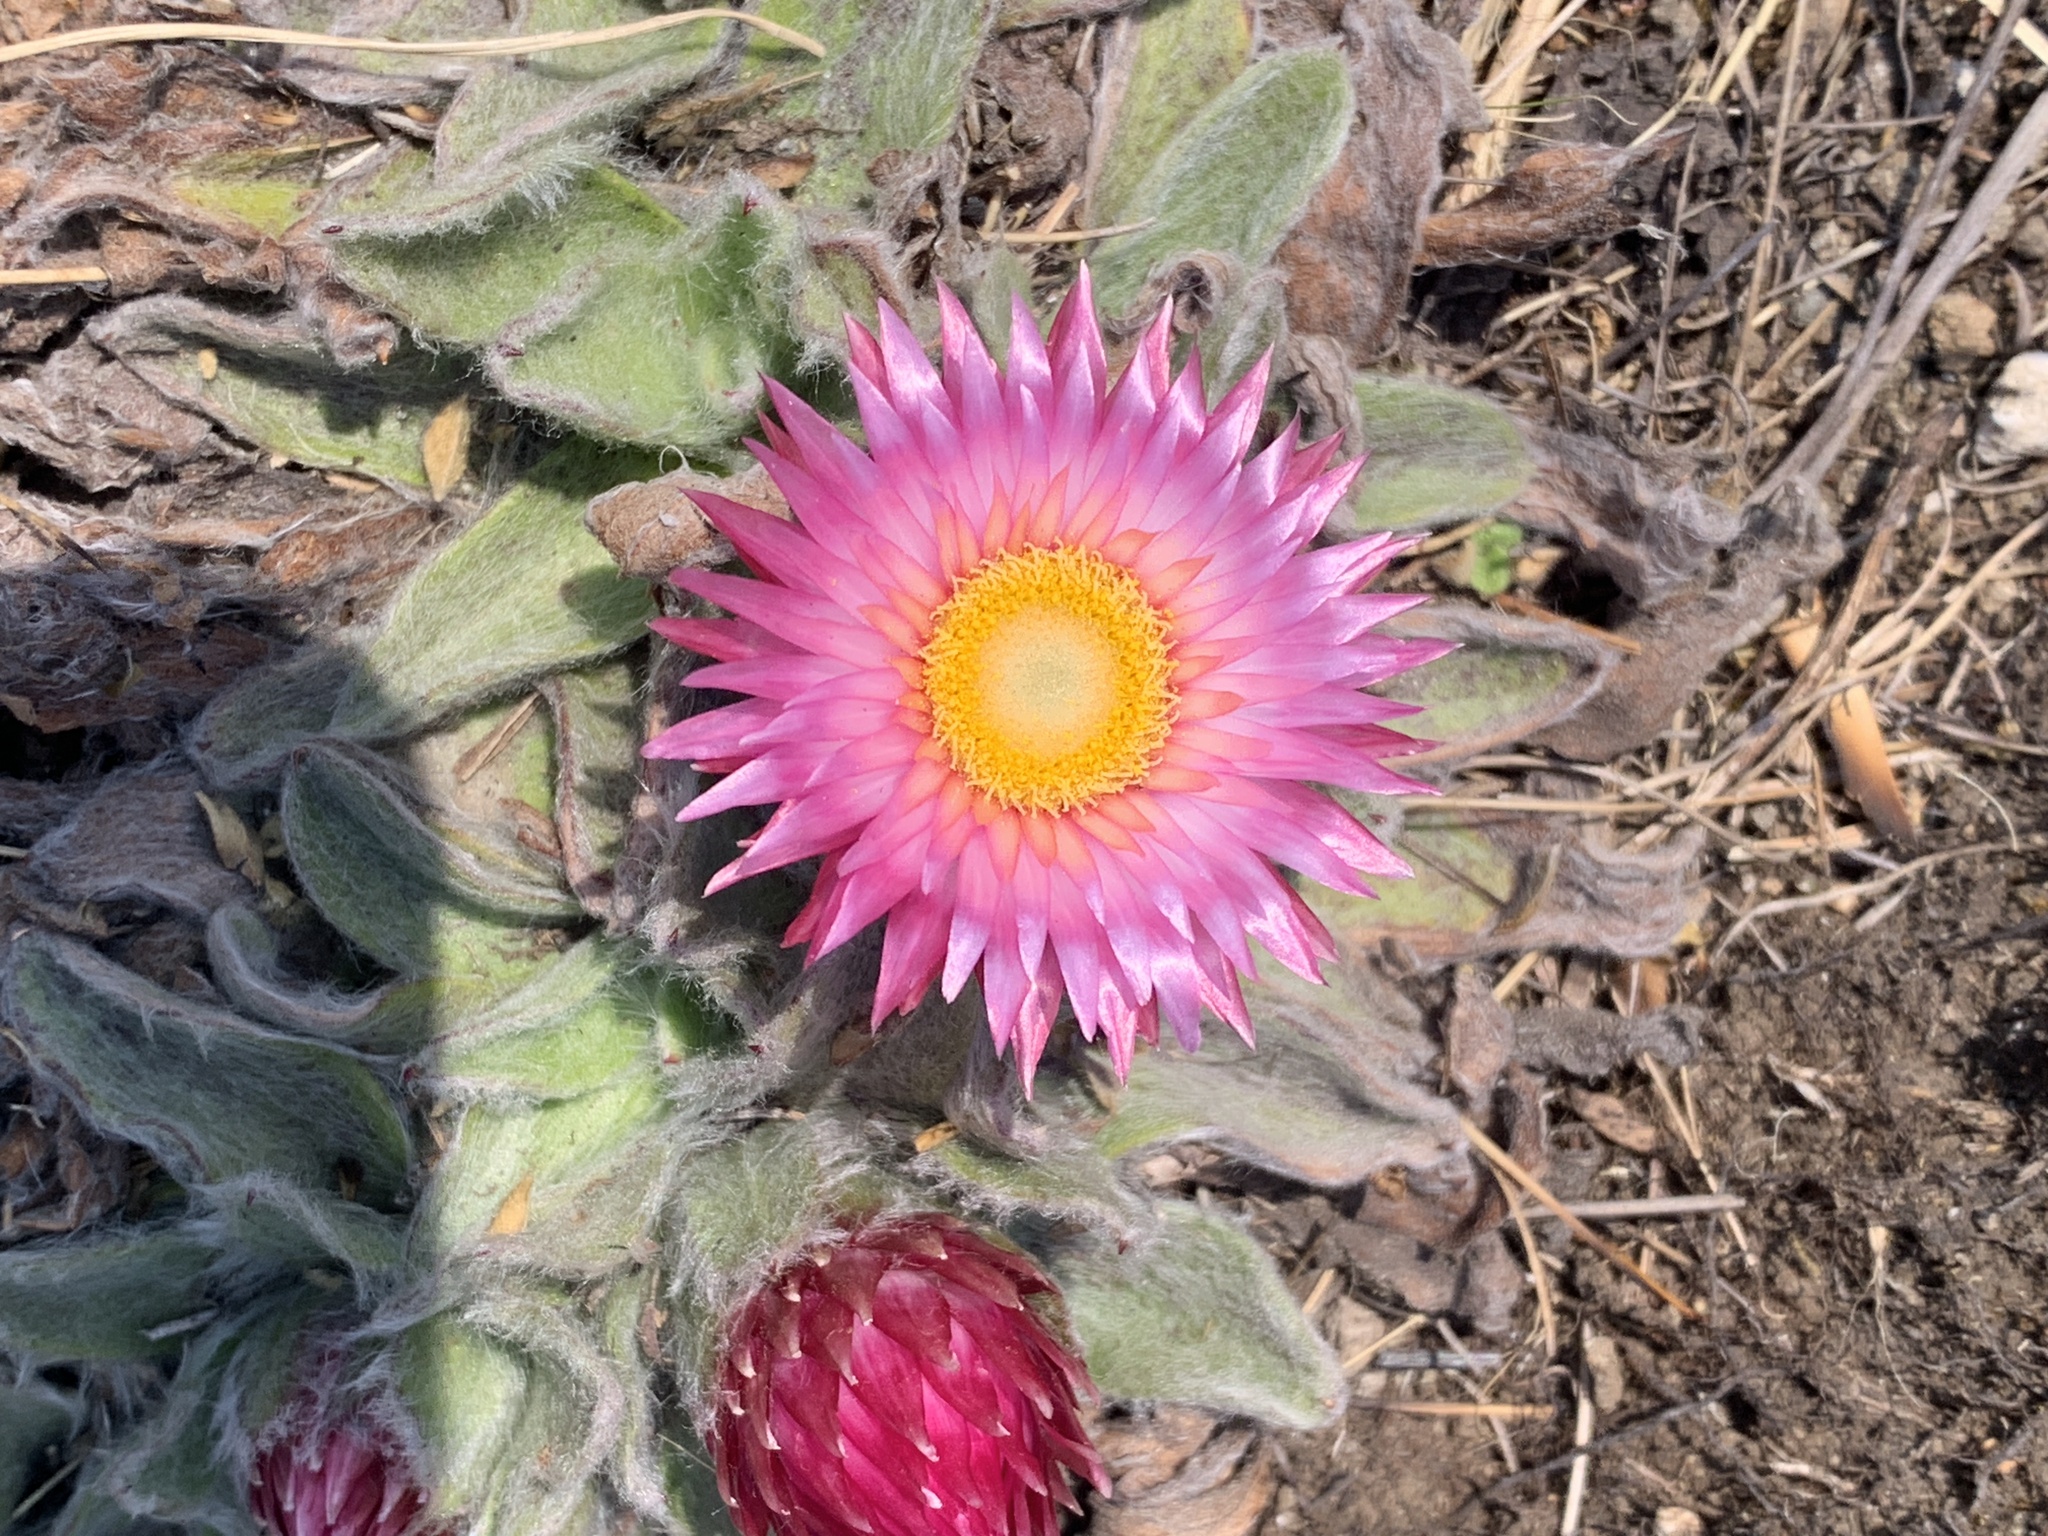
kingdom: Plantae
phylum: Tracheophyta
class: Magnoliopsida
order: Asterales
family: Asteraceae
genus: Helichrysum
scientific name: Helichrysum adenocarpum
